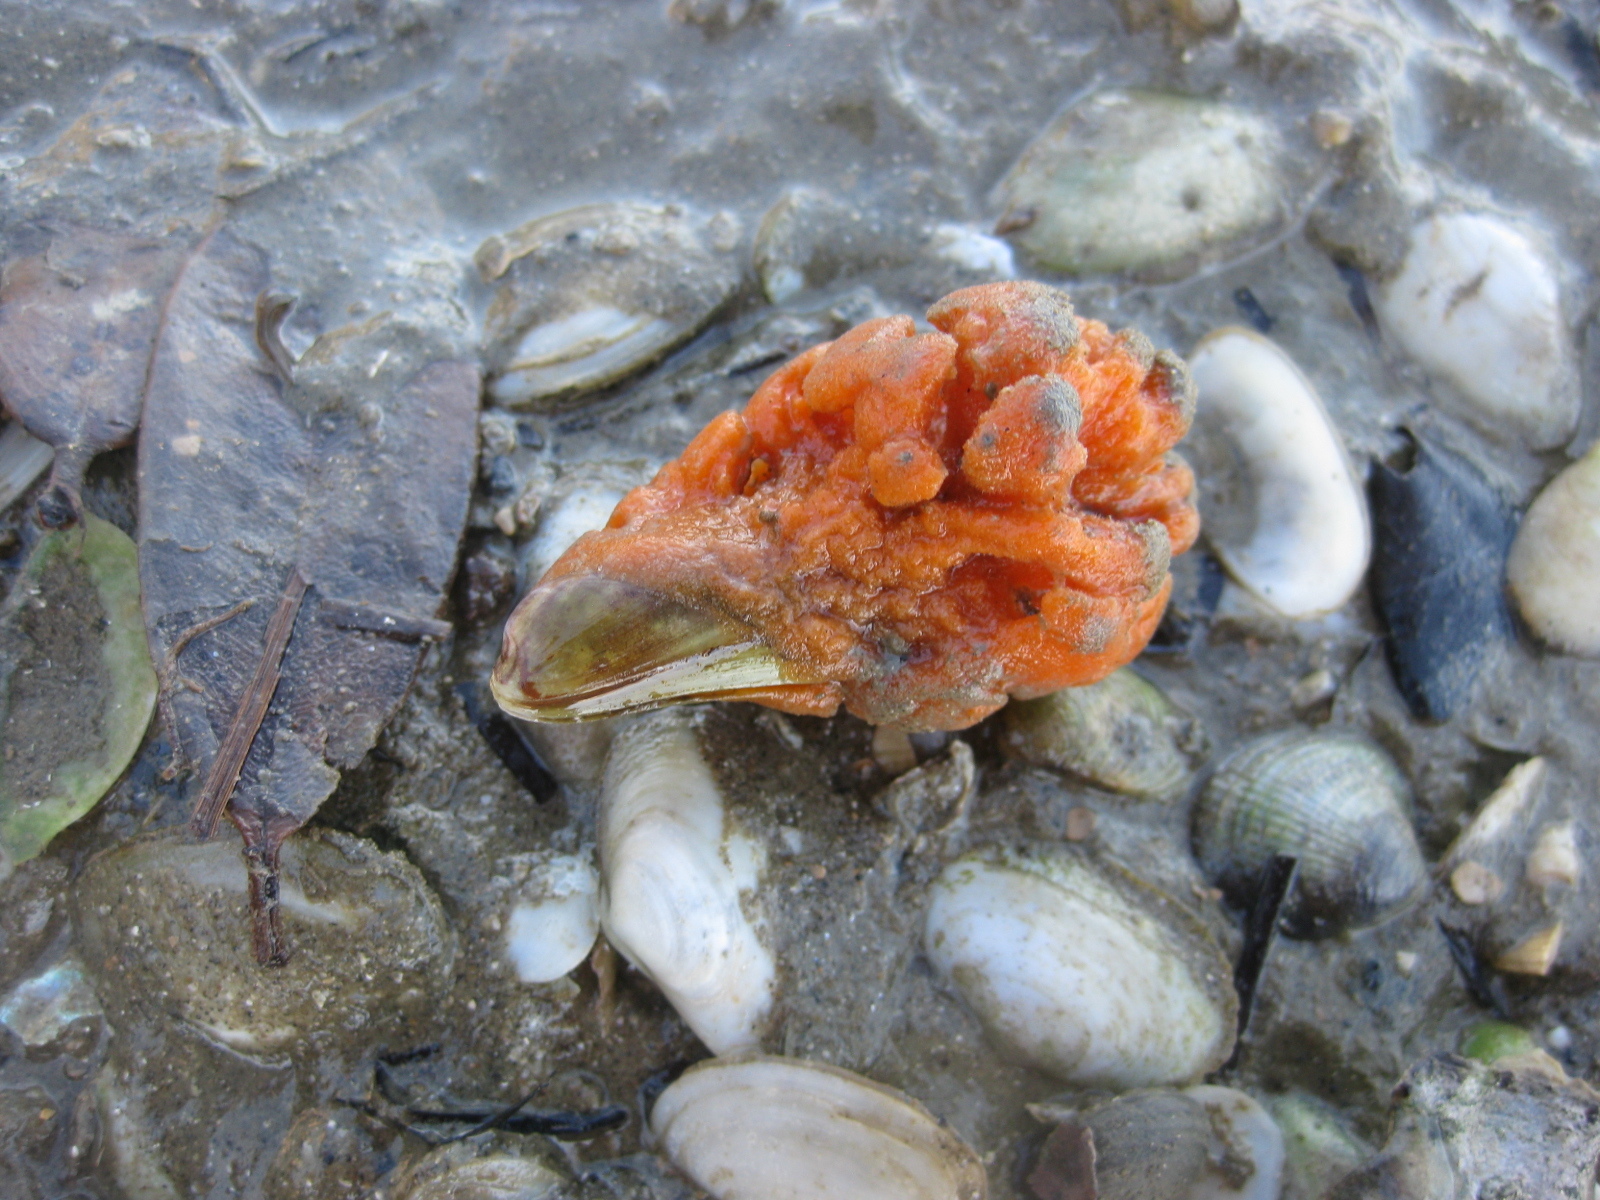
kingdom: Animalia
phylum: Porifera
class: Demospongiae
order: Poecilosclerida
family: Crellidae
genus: Crella
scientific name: Crella incrustans
